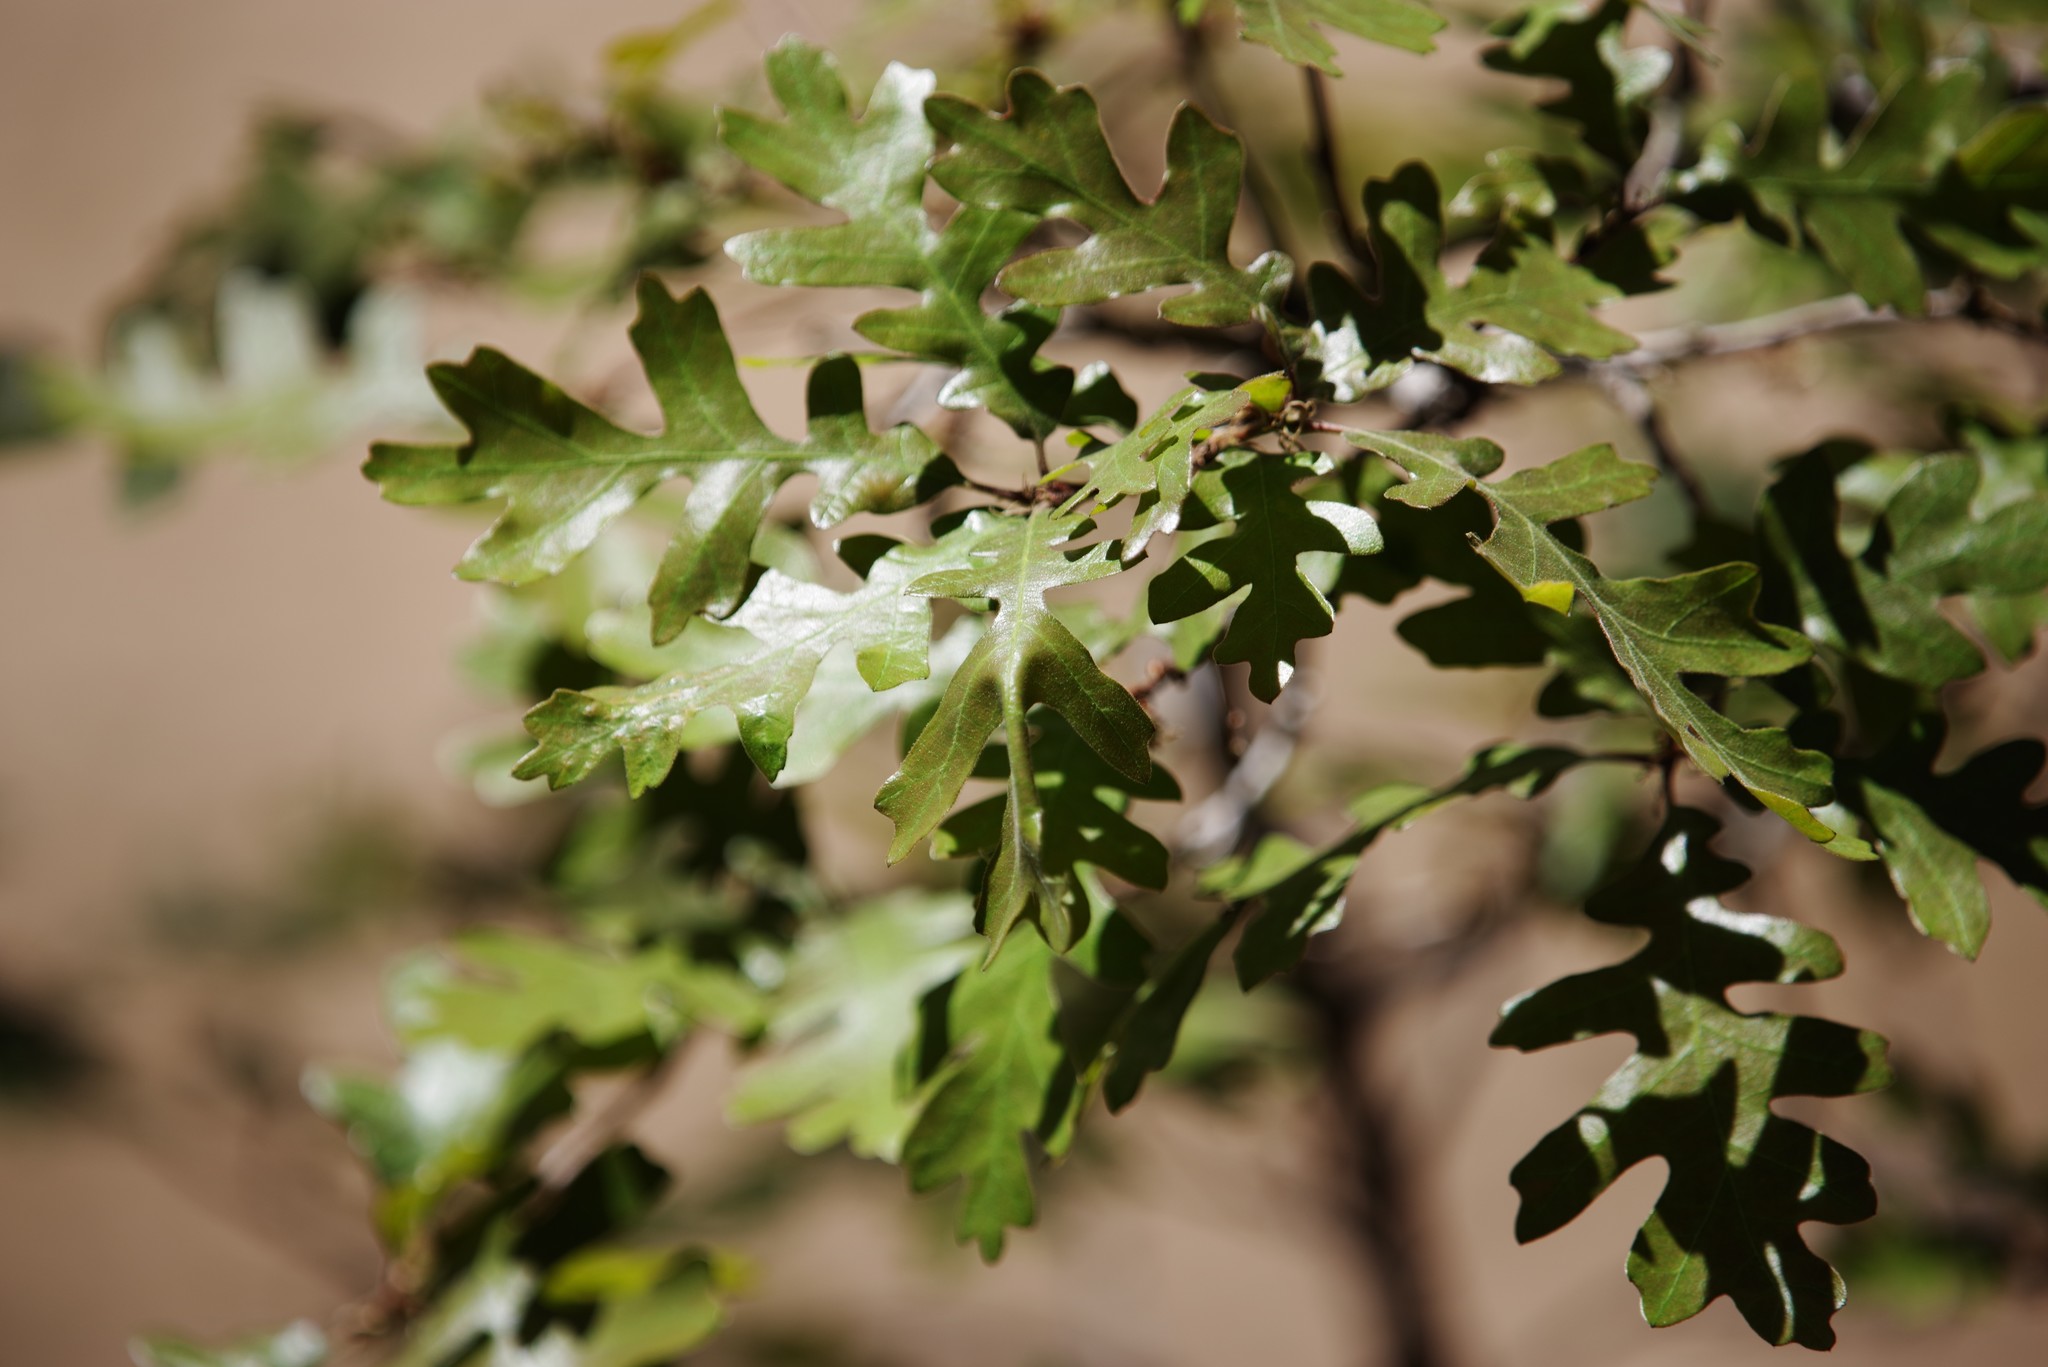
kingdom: Plantae
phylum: Tracheophyta
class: Magnoliopsida
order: Fagales
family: Fagaceae
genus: Quercus
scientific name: Quercus gambelii
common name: Gambel oak
